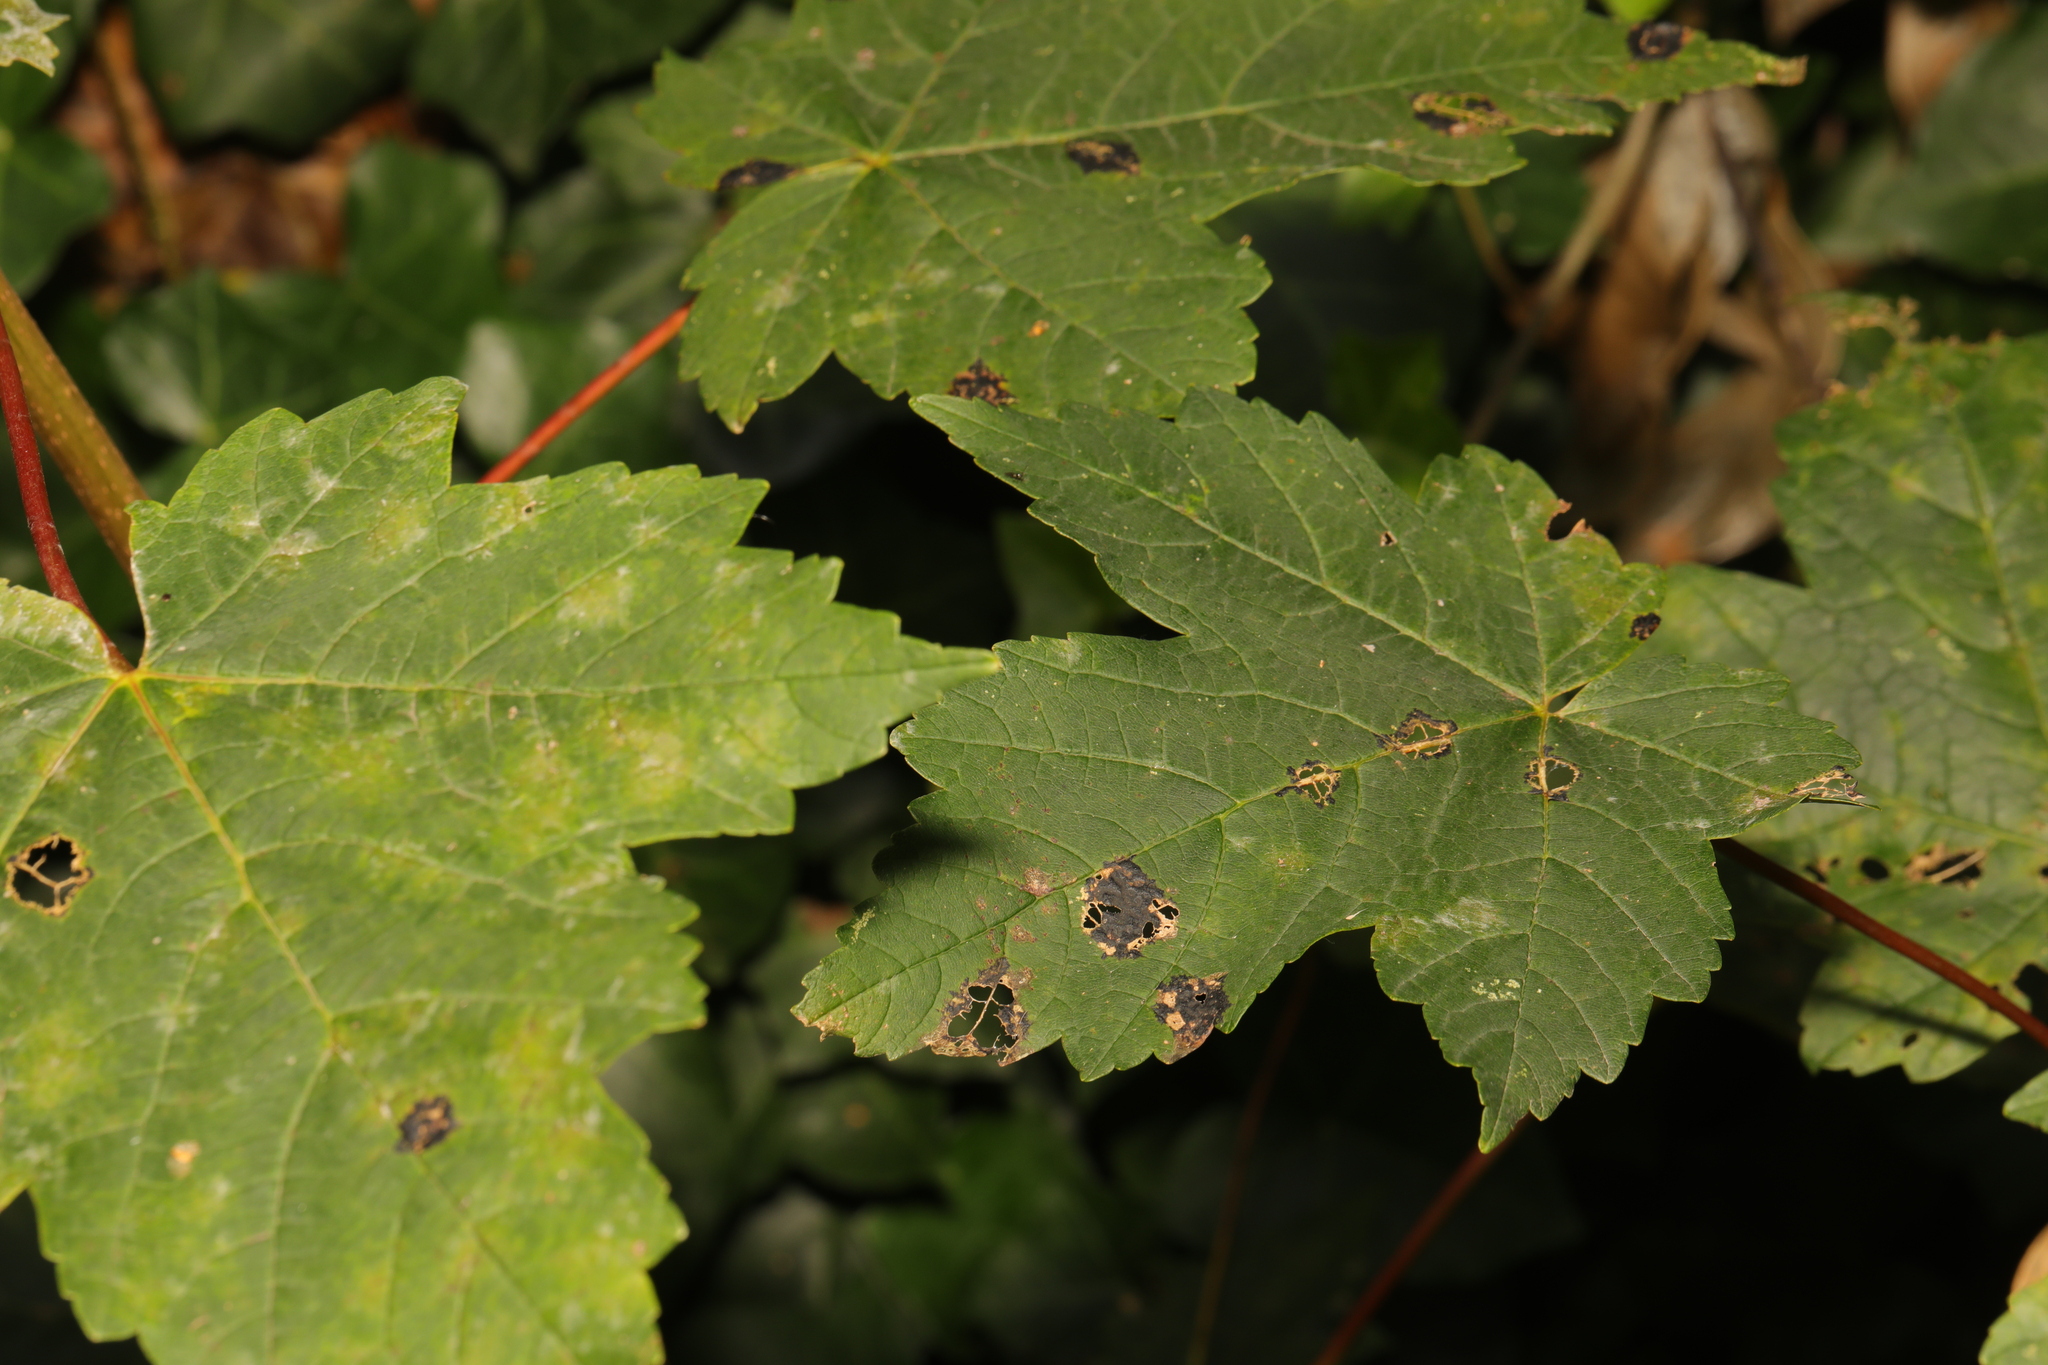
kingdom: Plantae
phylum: Tracheophyta
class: Magnoliopsida
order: Sapindales
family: Sapindaceae
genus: Acer
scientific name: Acer pseudoplatanus
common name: Sycamore
